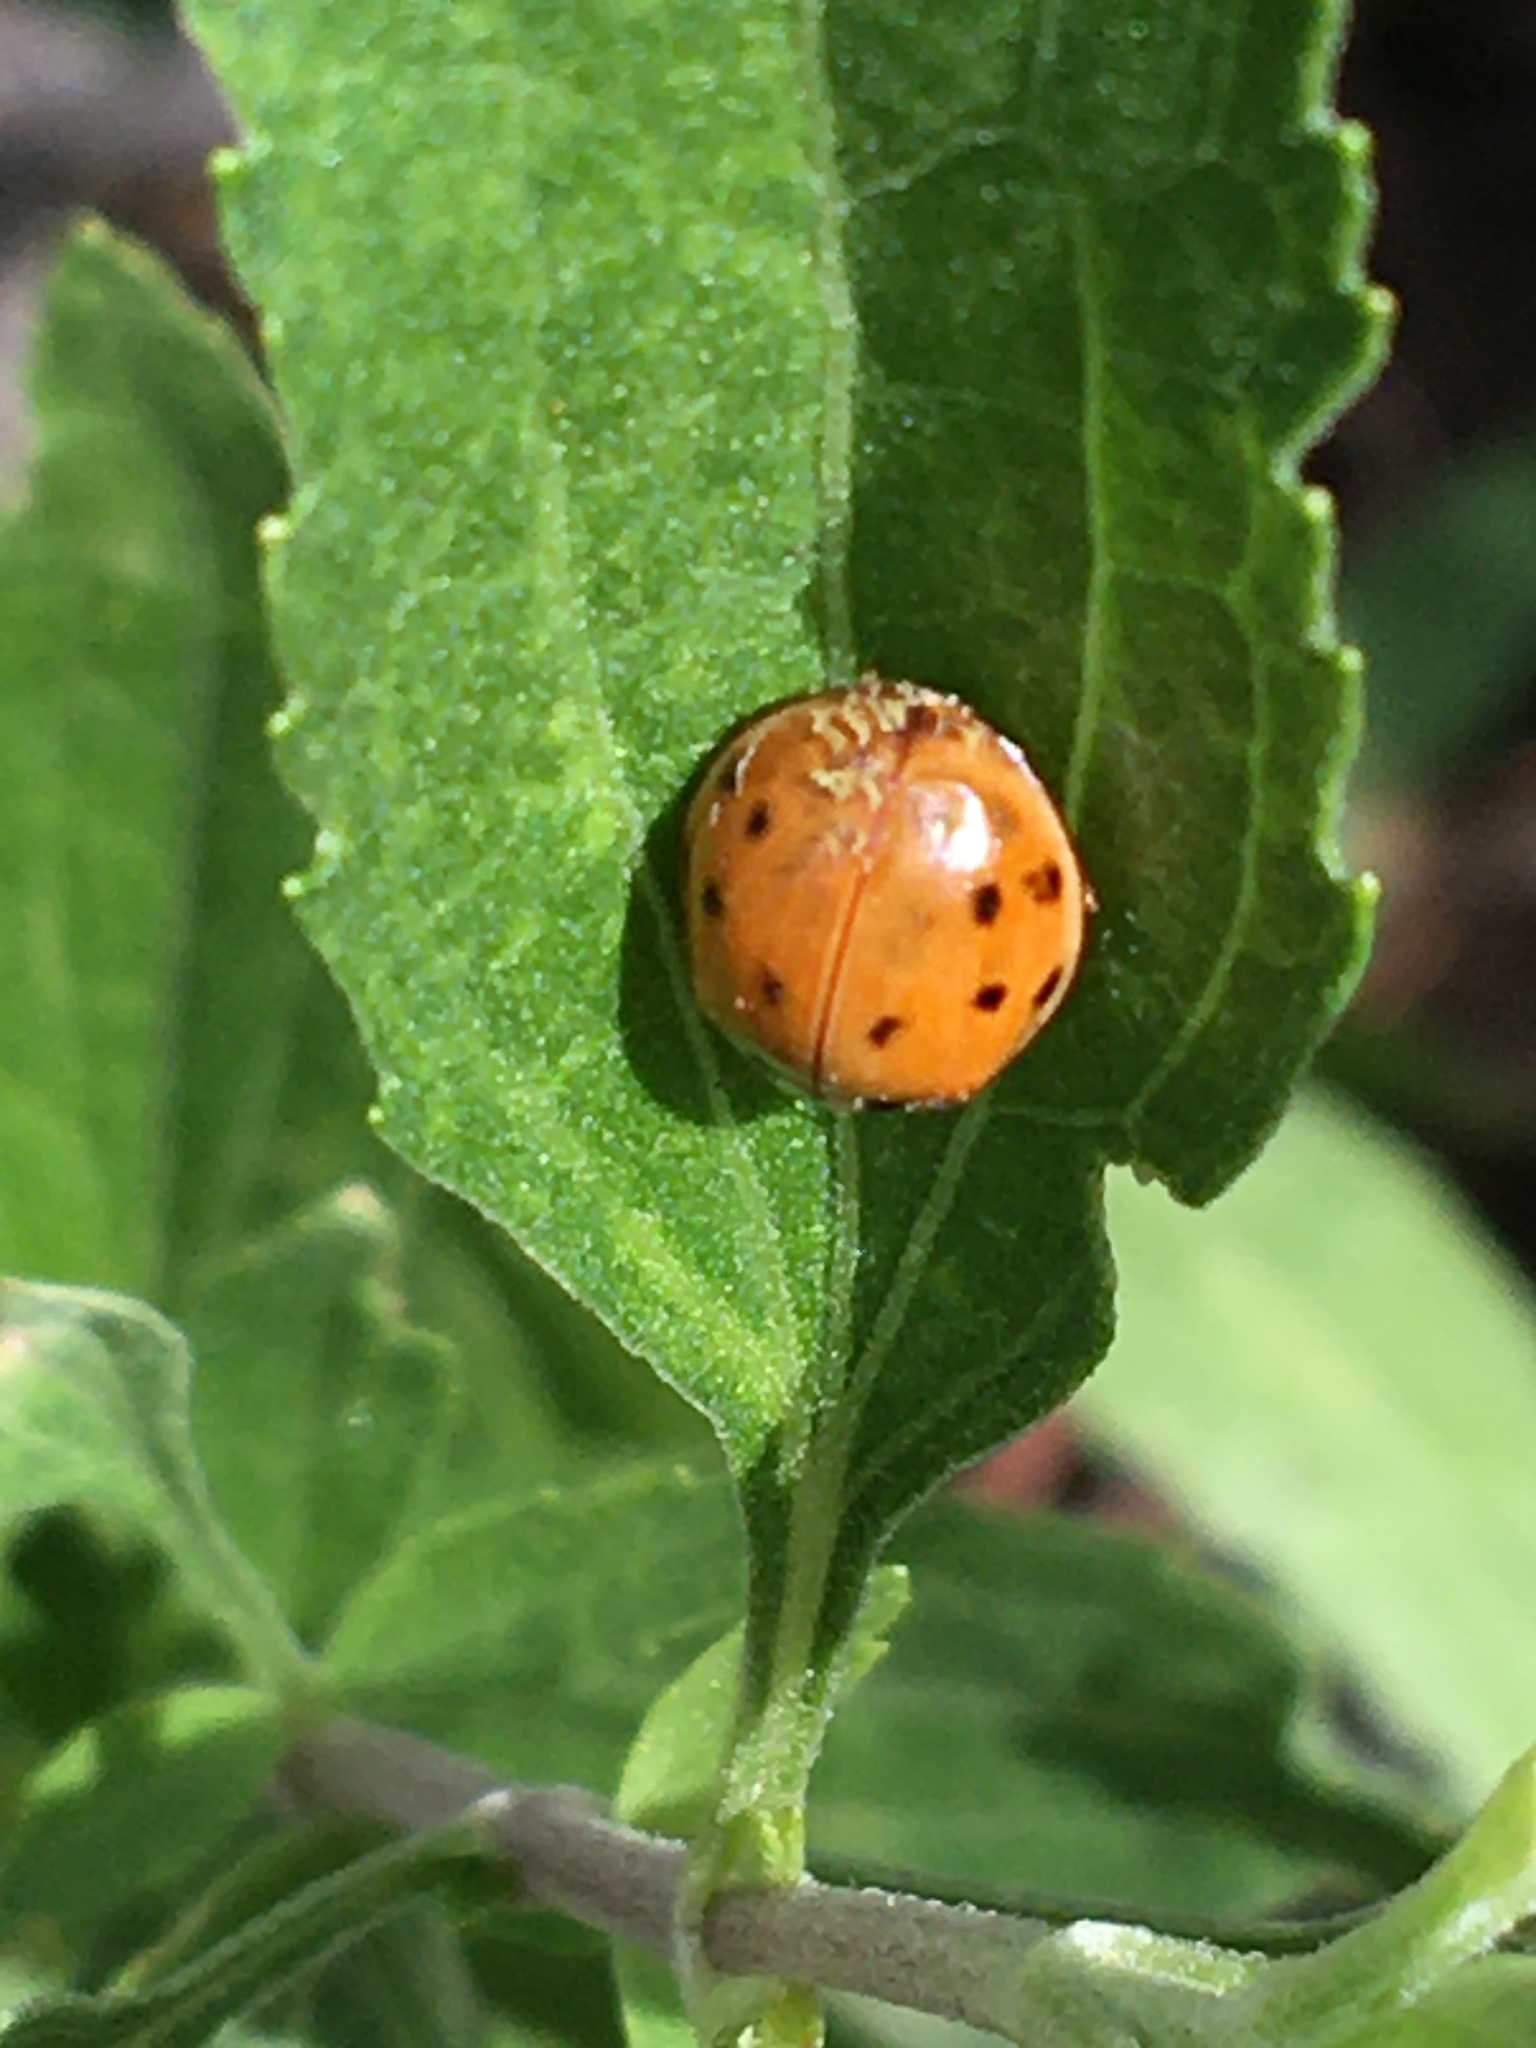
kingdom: Fungi
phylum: Ascomycota
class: Laboulbeniomycetes
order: Laboulbeniales
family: Laboulbeniaceae
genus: Hesperomyces
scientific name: Hesperomyces harmoniae
